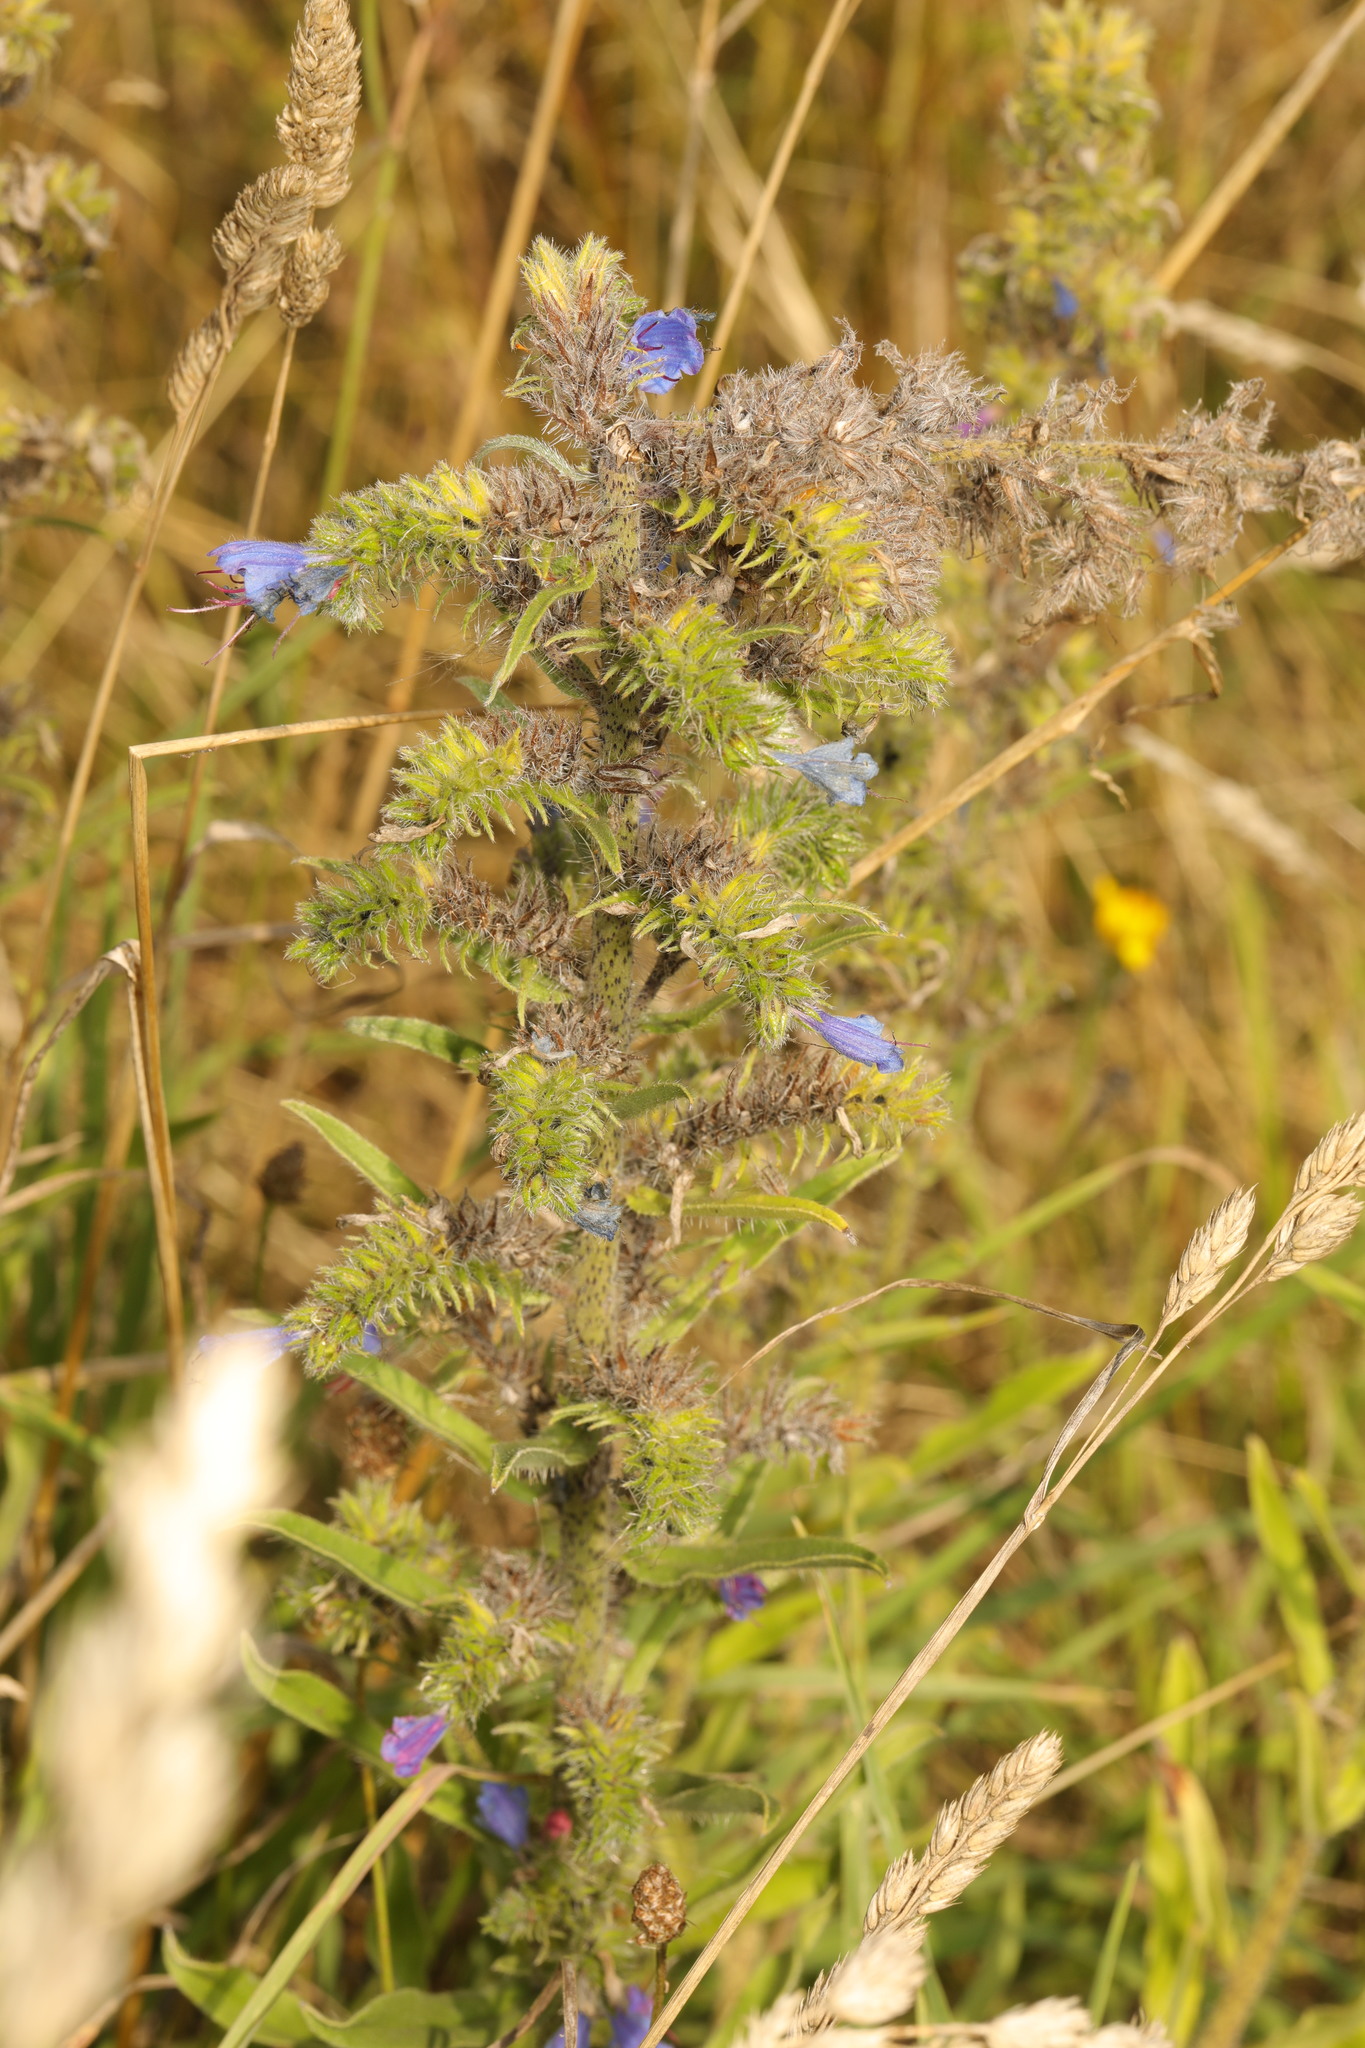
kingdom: Plantae
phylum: Tracheophyta
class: Magnoliopsida
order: Boraginales
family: Boraginaceae
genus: Echium
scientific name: Echium vulgare
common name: Common viper's bugloss
